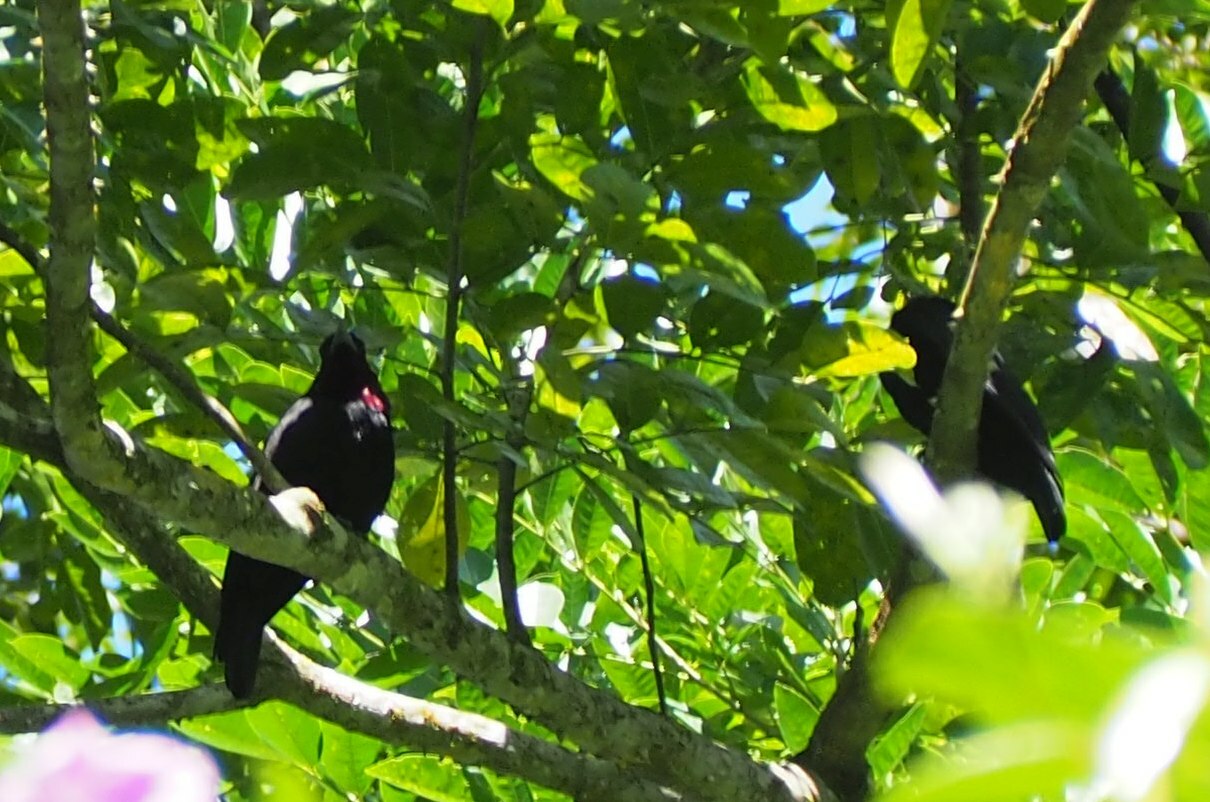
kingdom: Animalia
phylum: Chordata
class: Aves
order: Passeriformes
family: Cotingidae
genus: Querula
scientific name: Querula purpurata
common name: Purple-throated fruitcrow
